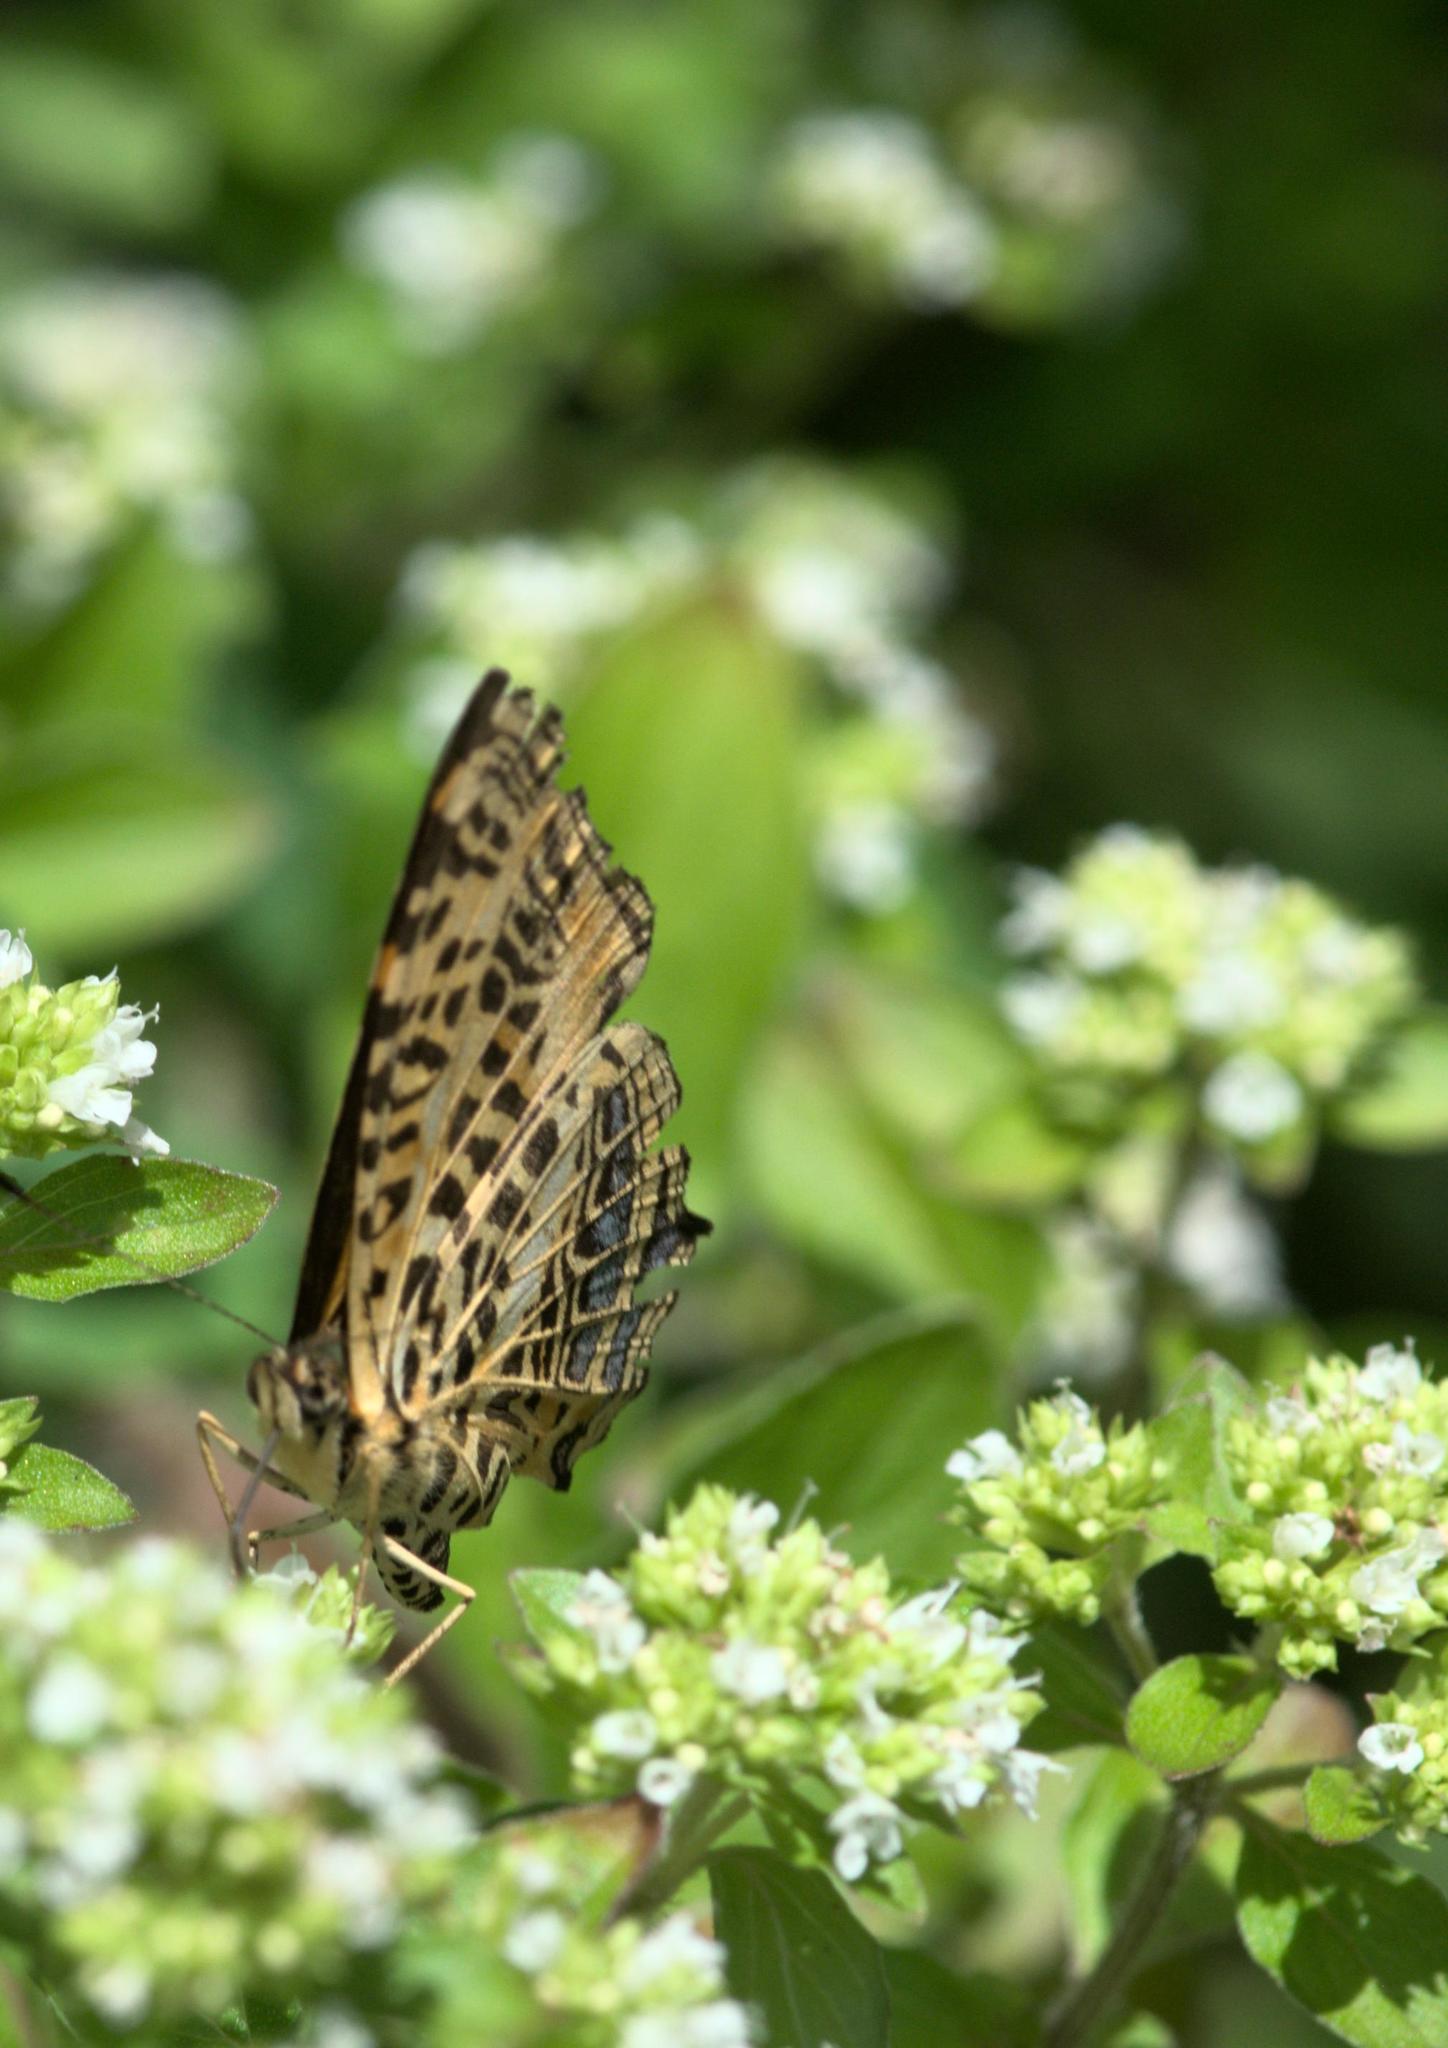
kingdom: Animalia
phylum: Arthropoda
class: Insecta
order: Lepidoptera
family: Nymphalidae
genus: Symbrenthia
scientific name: Symbrenthia niphanda
